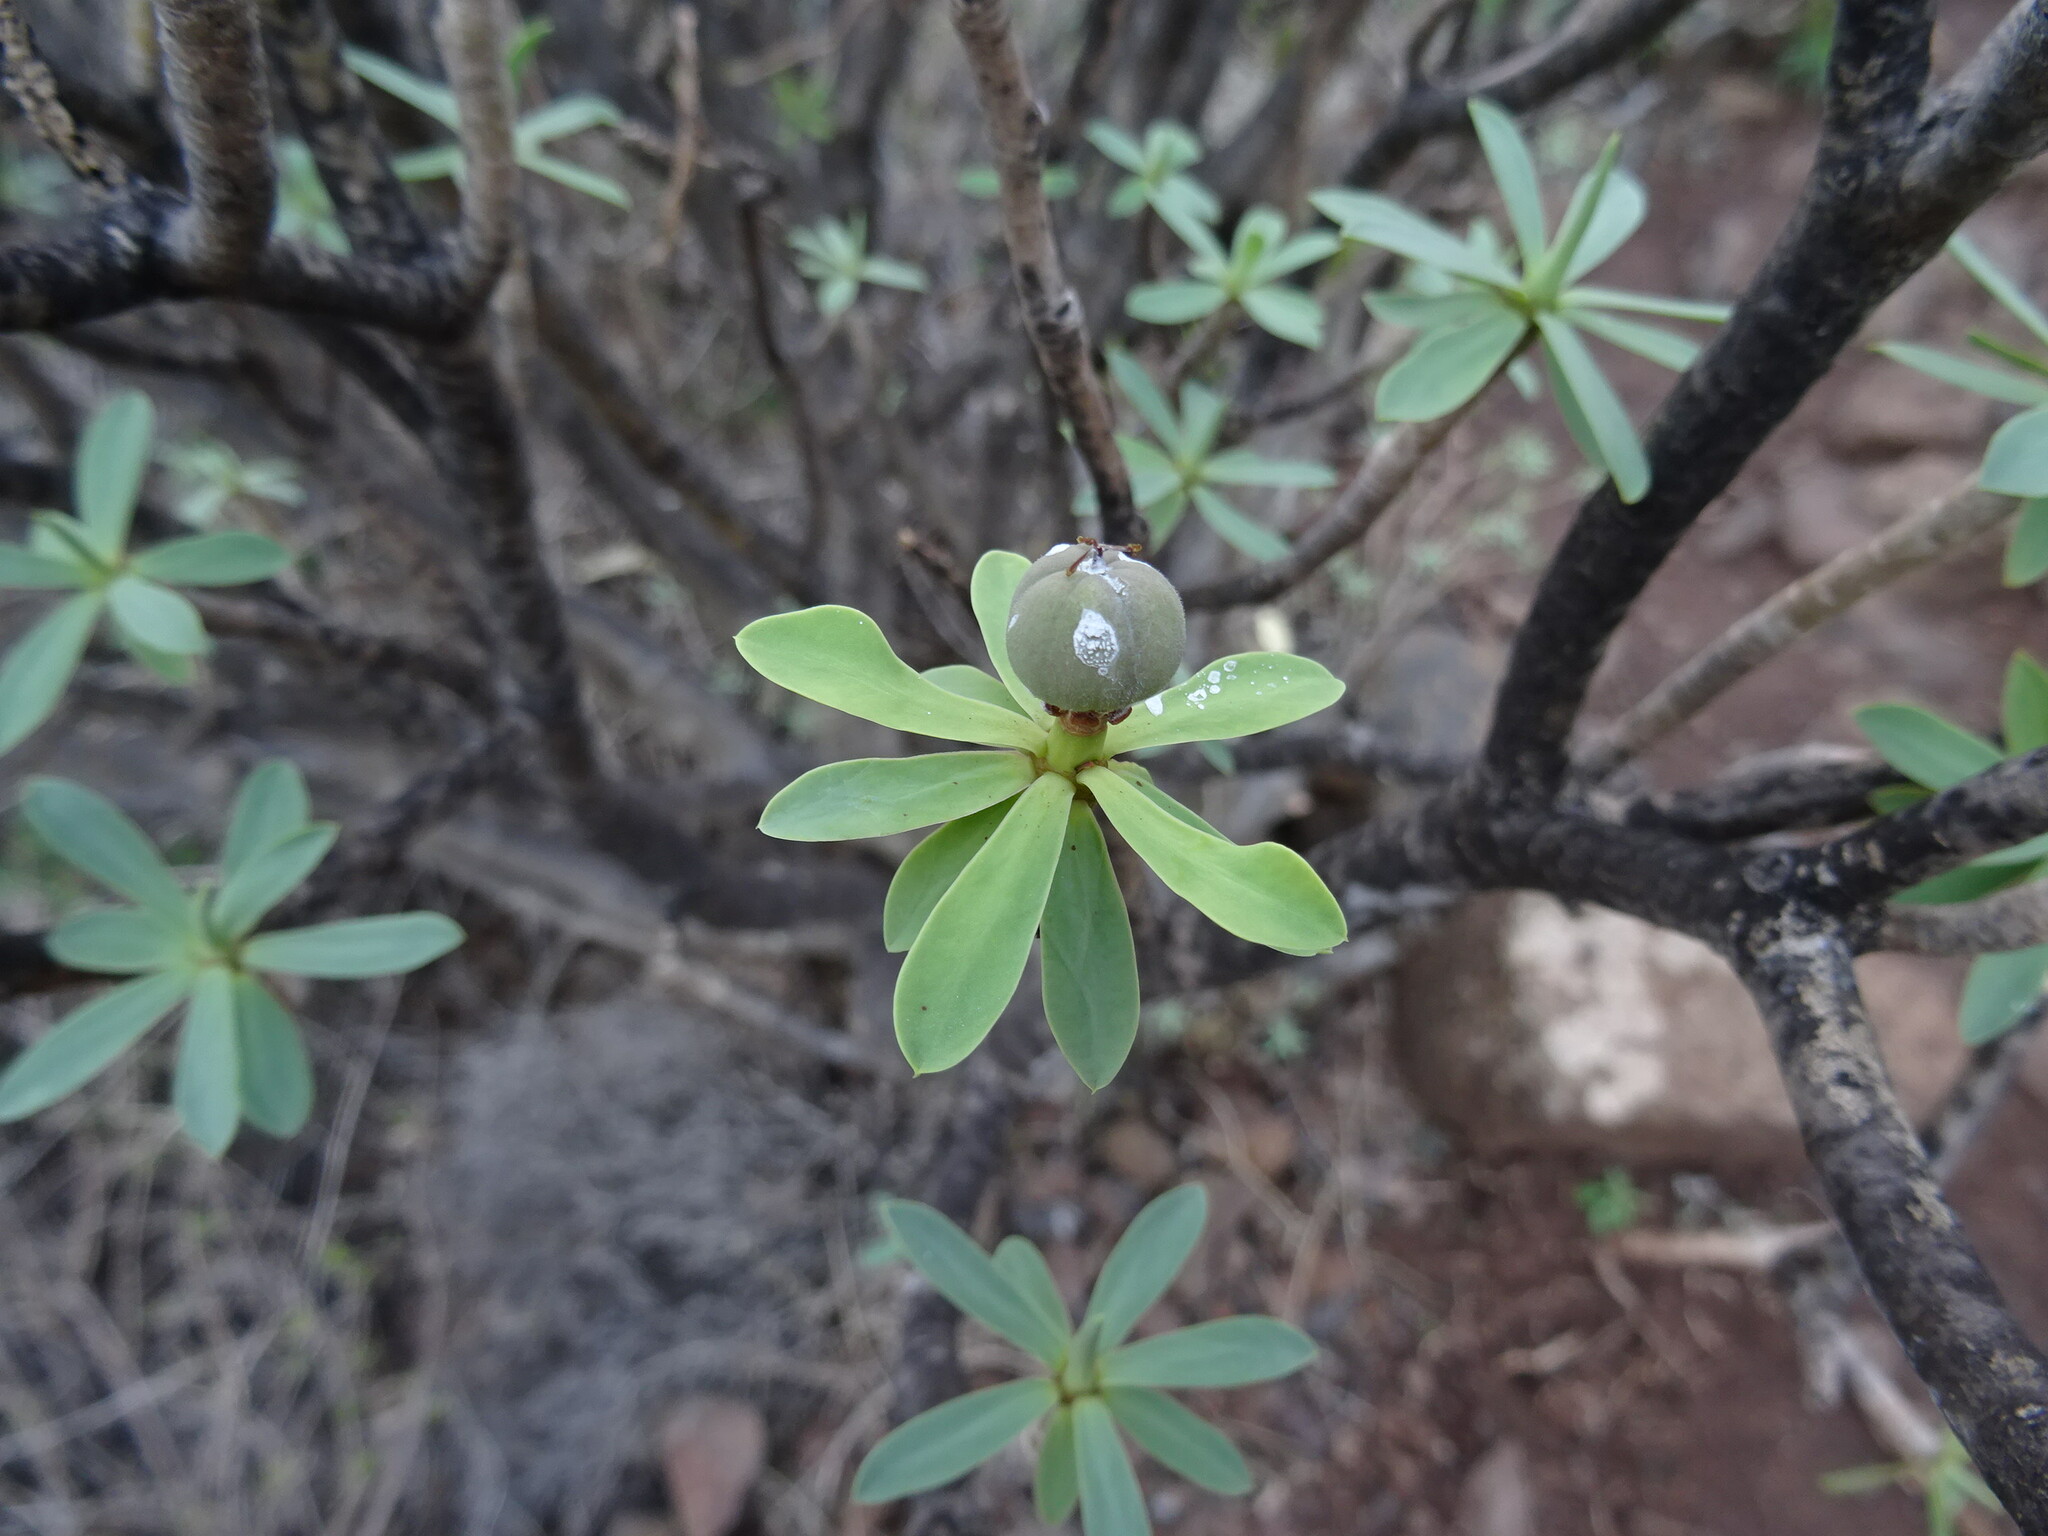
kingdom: Plantae
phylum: Tracheophyta
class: Magnoliopsida
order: Malpighiales
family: Euphorbiaceae
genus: Euphorbia
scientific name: Euphorbia balsamifera
